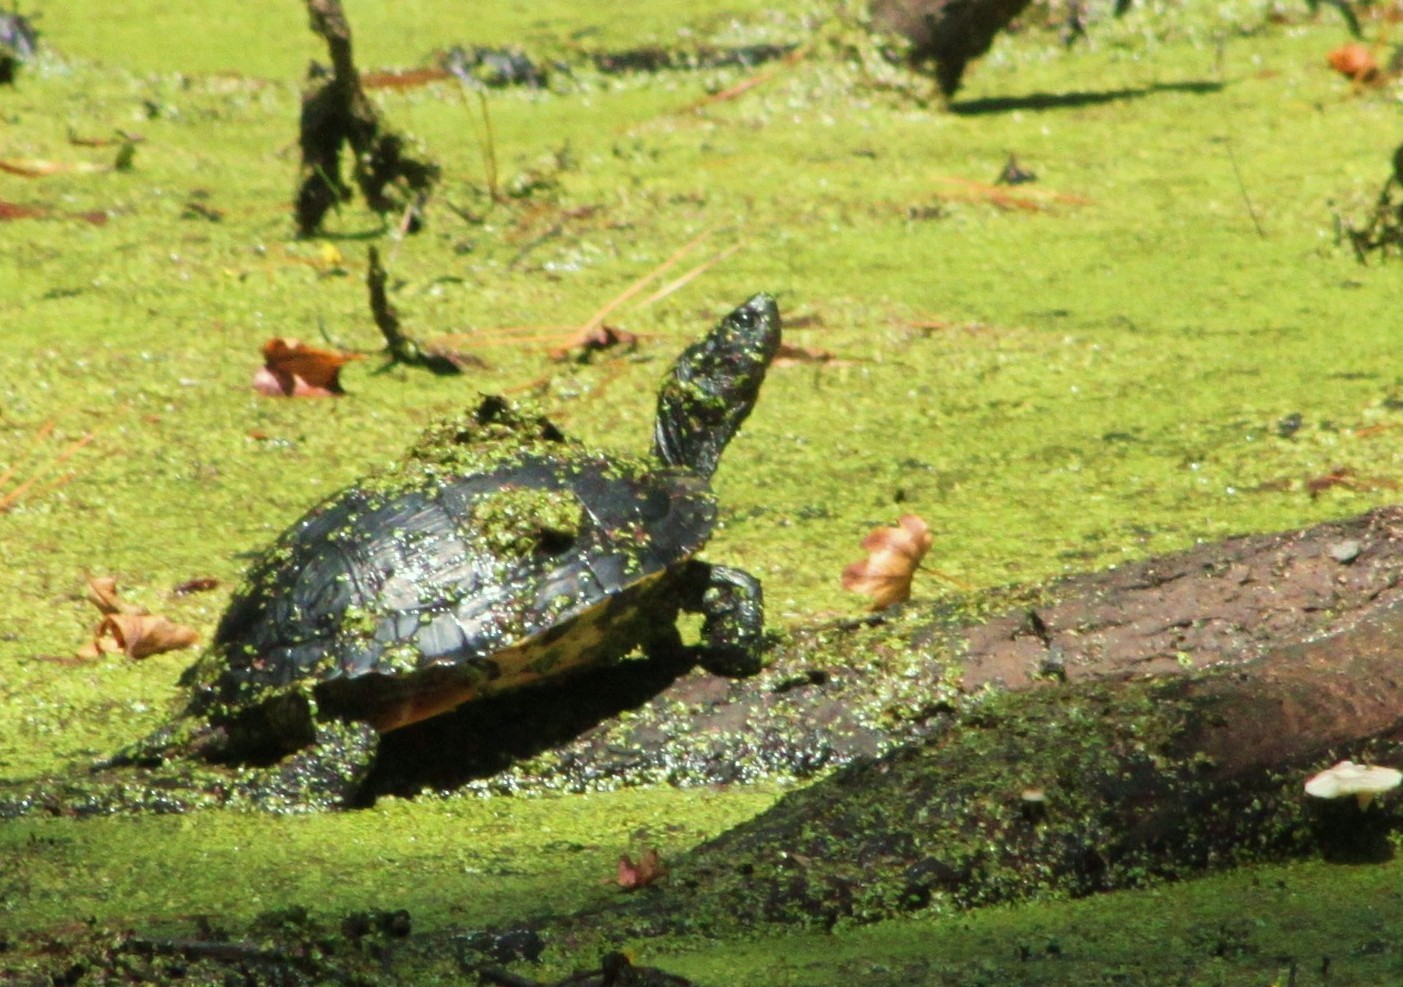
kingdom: Animalia
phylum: Chordata
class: Testudines
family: Emydidae
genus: Trachemys
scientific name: Trachemys scripta
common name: Slider
